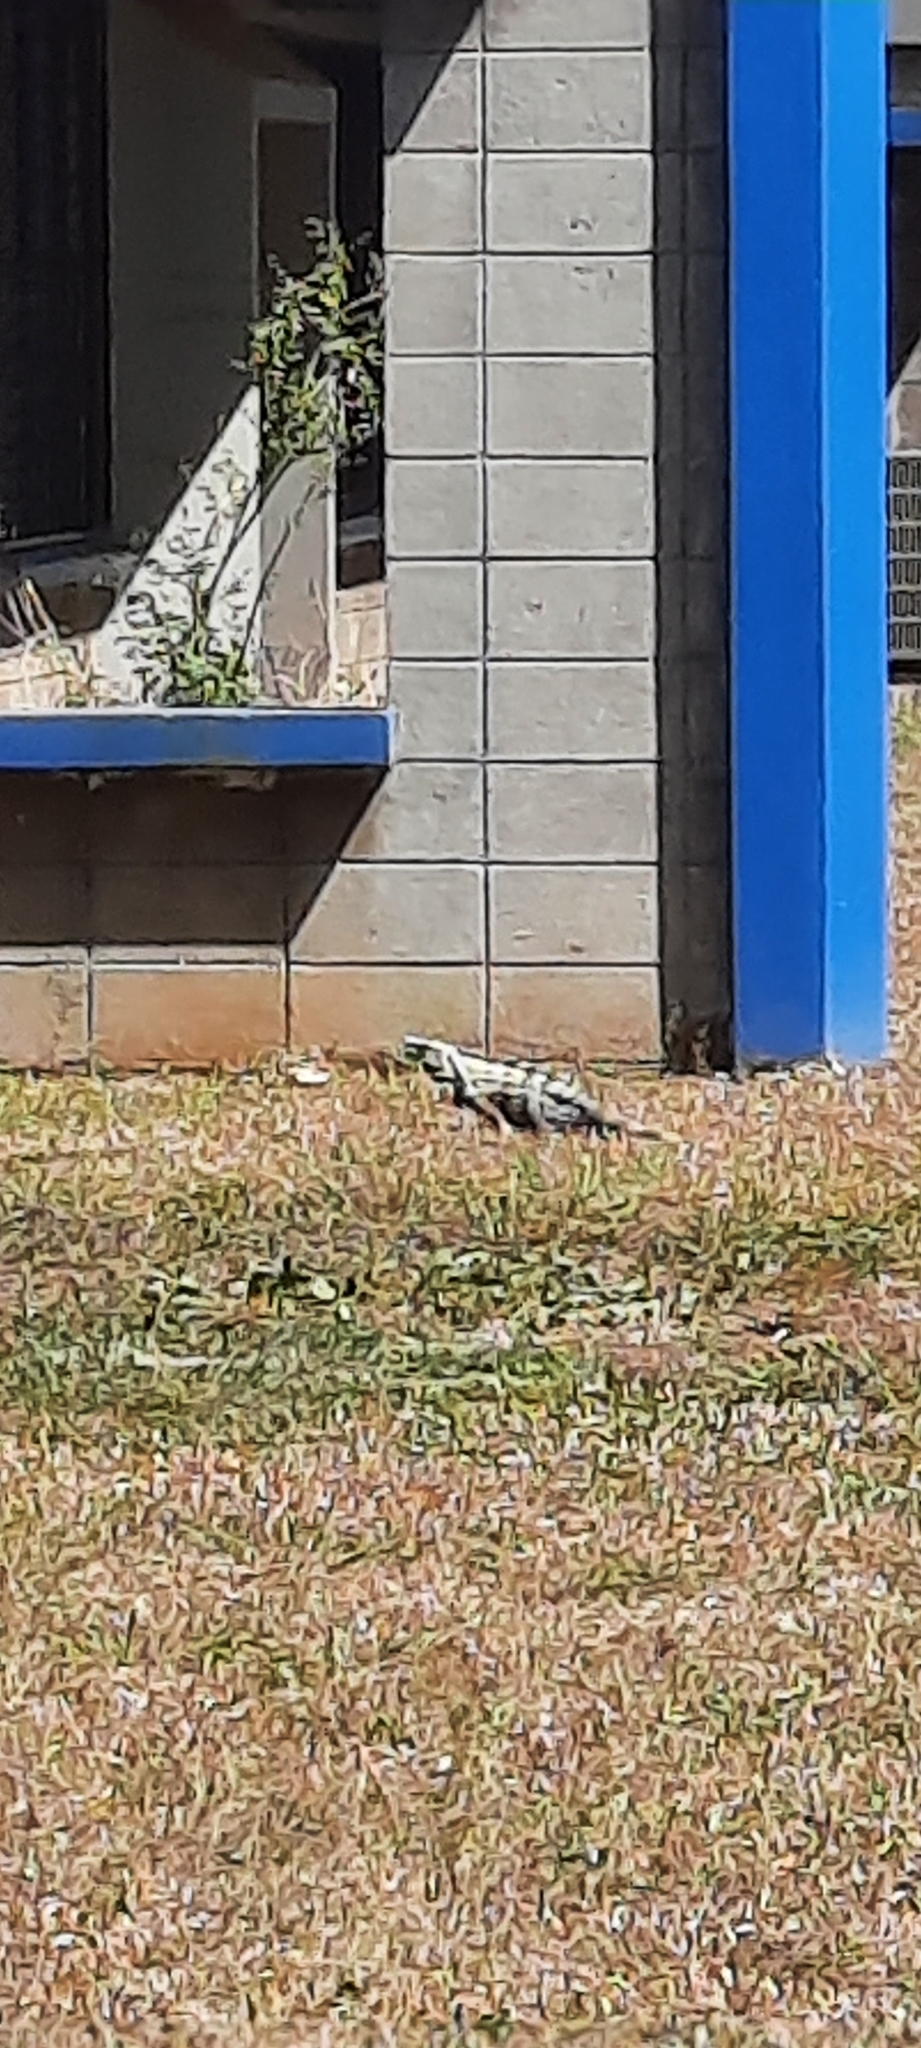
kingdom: Animalia
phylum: Chordata
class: Squamata
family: Iguanidae
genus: Ctenosaura
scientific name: Ctenosaura similis
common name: Black spiny-tailed iguana
